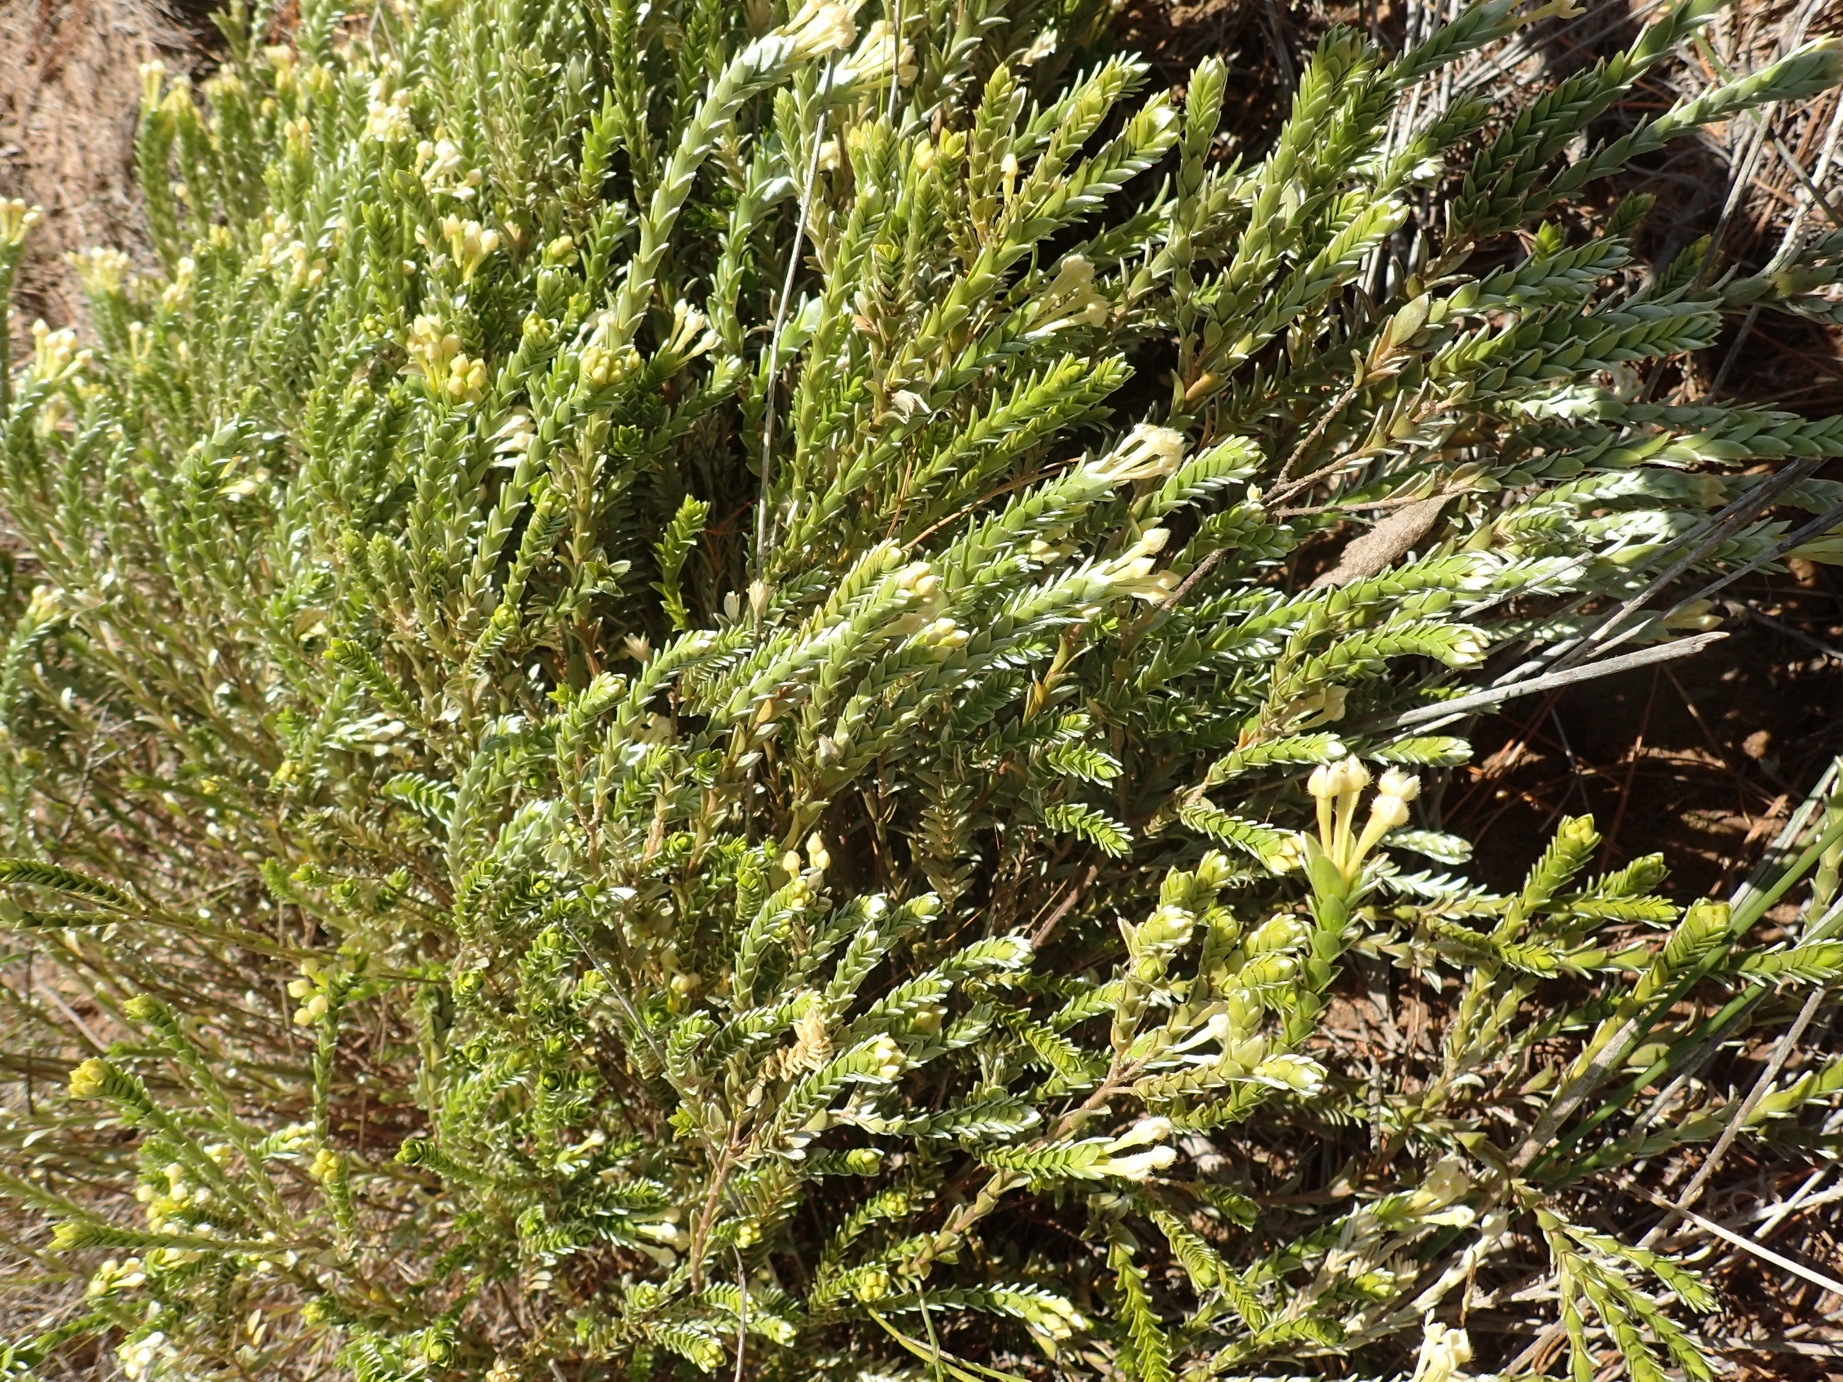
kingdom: Plantae
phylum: Tracheophyta
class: Magnoliopsida
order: Malvales
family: Thymelaeaceae
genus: Gnidia
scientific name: Gnidia chrysophylla
